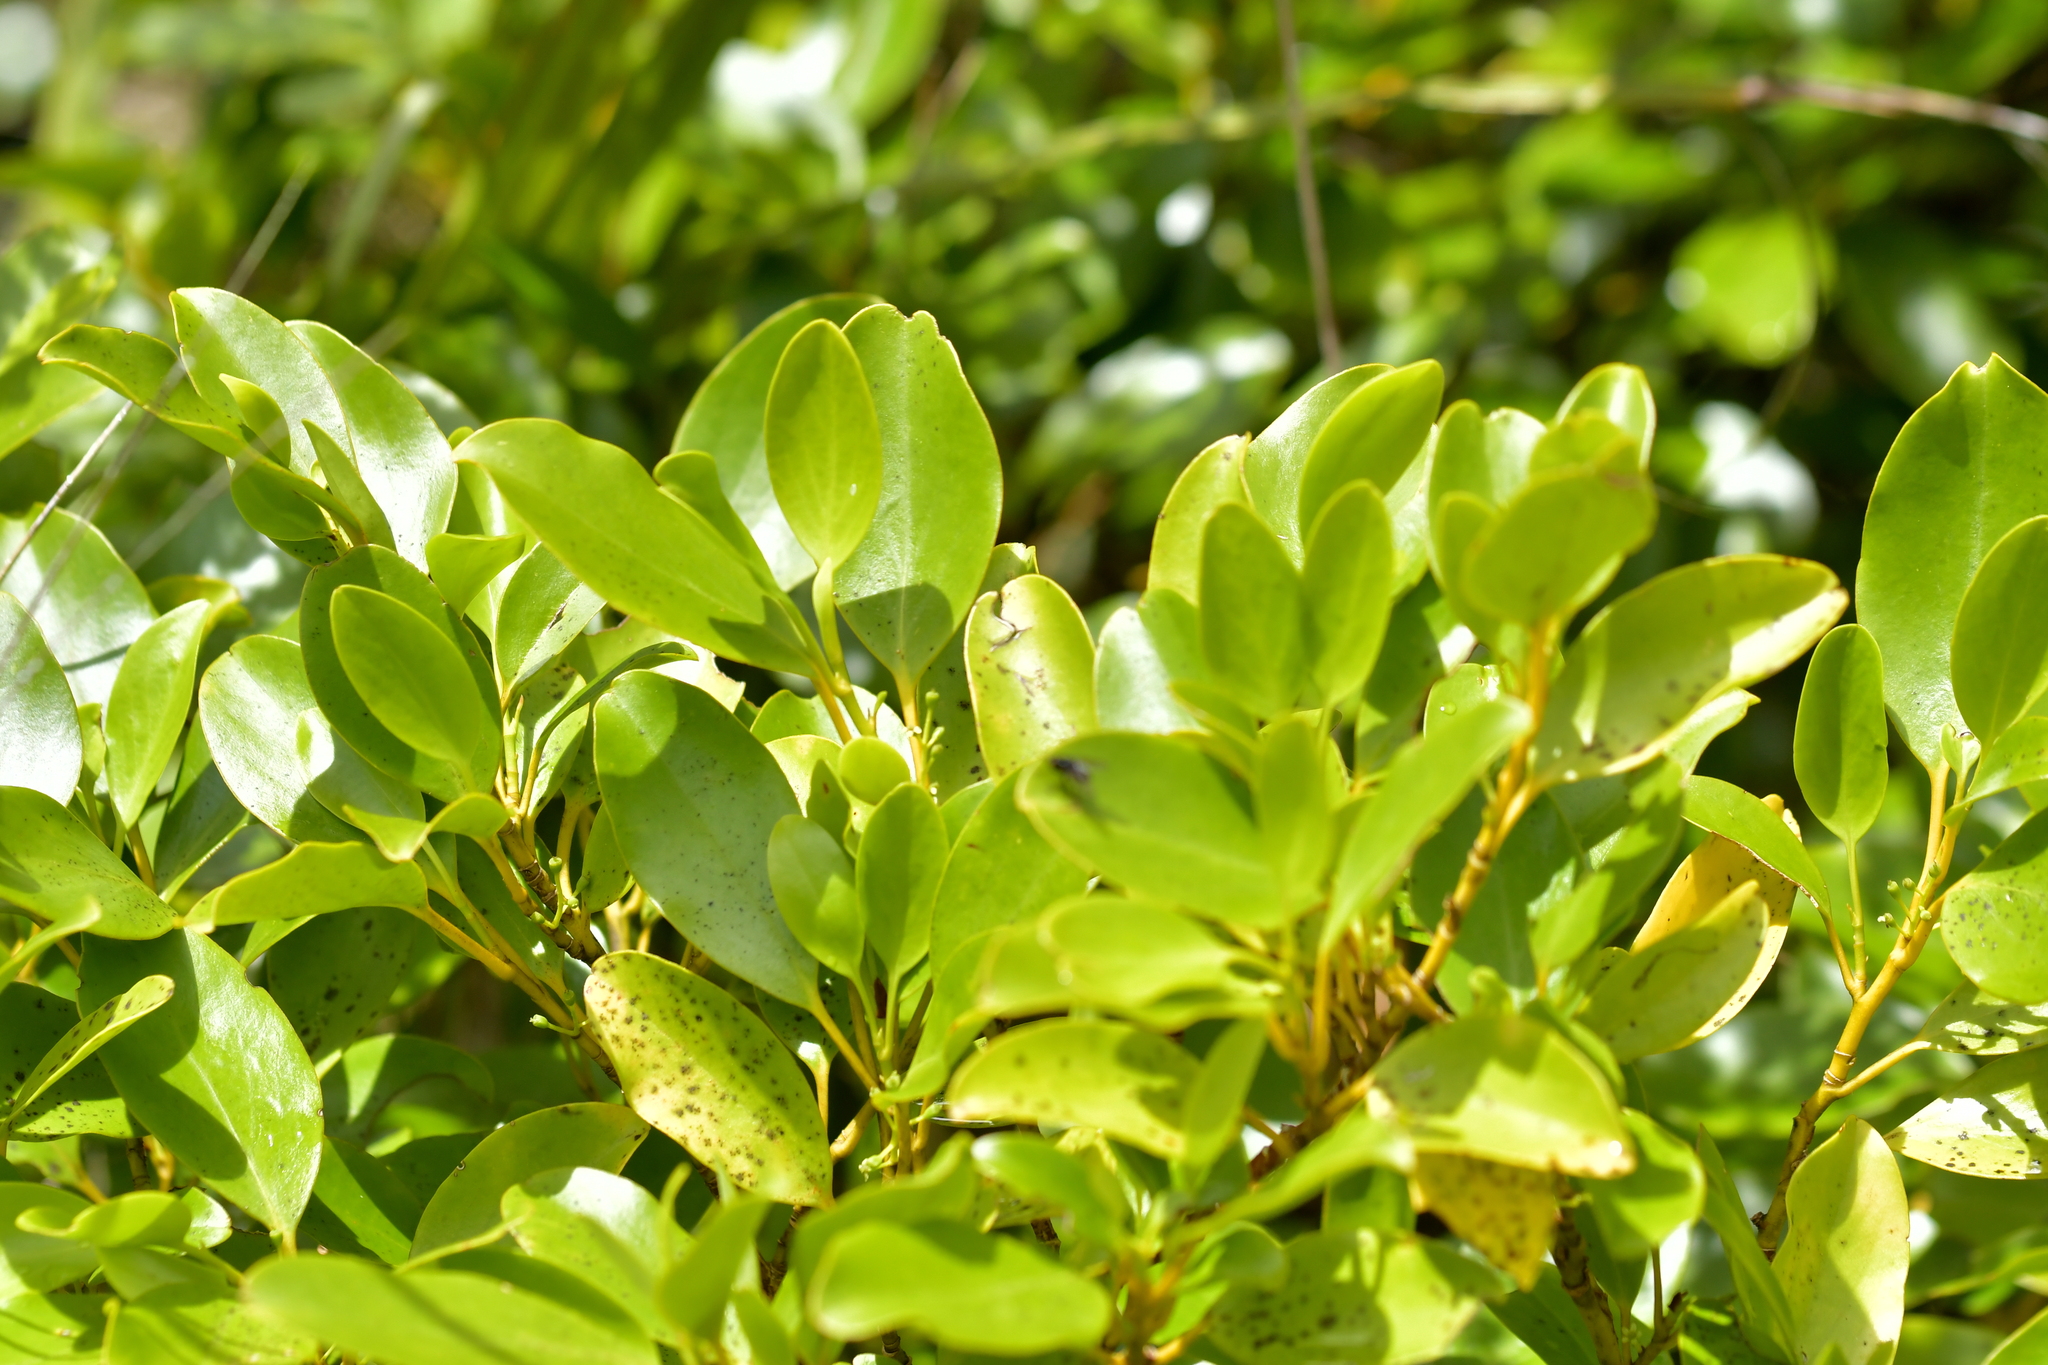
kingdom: Plantae
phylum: Tracheophyta
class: Magnoliopsida
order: Apiales
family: Griseliniaceae
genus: Griselinia
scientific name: Griselinia littoralis
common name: New zealand broadleaf
